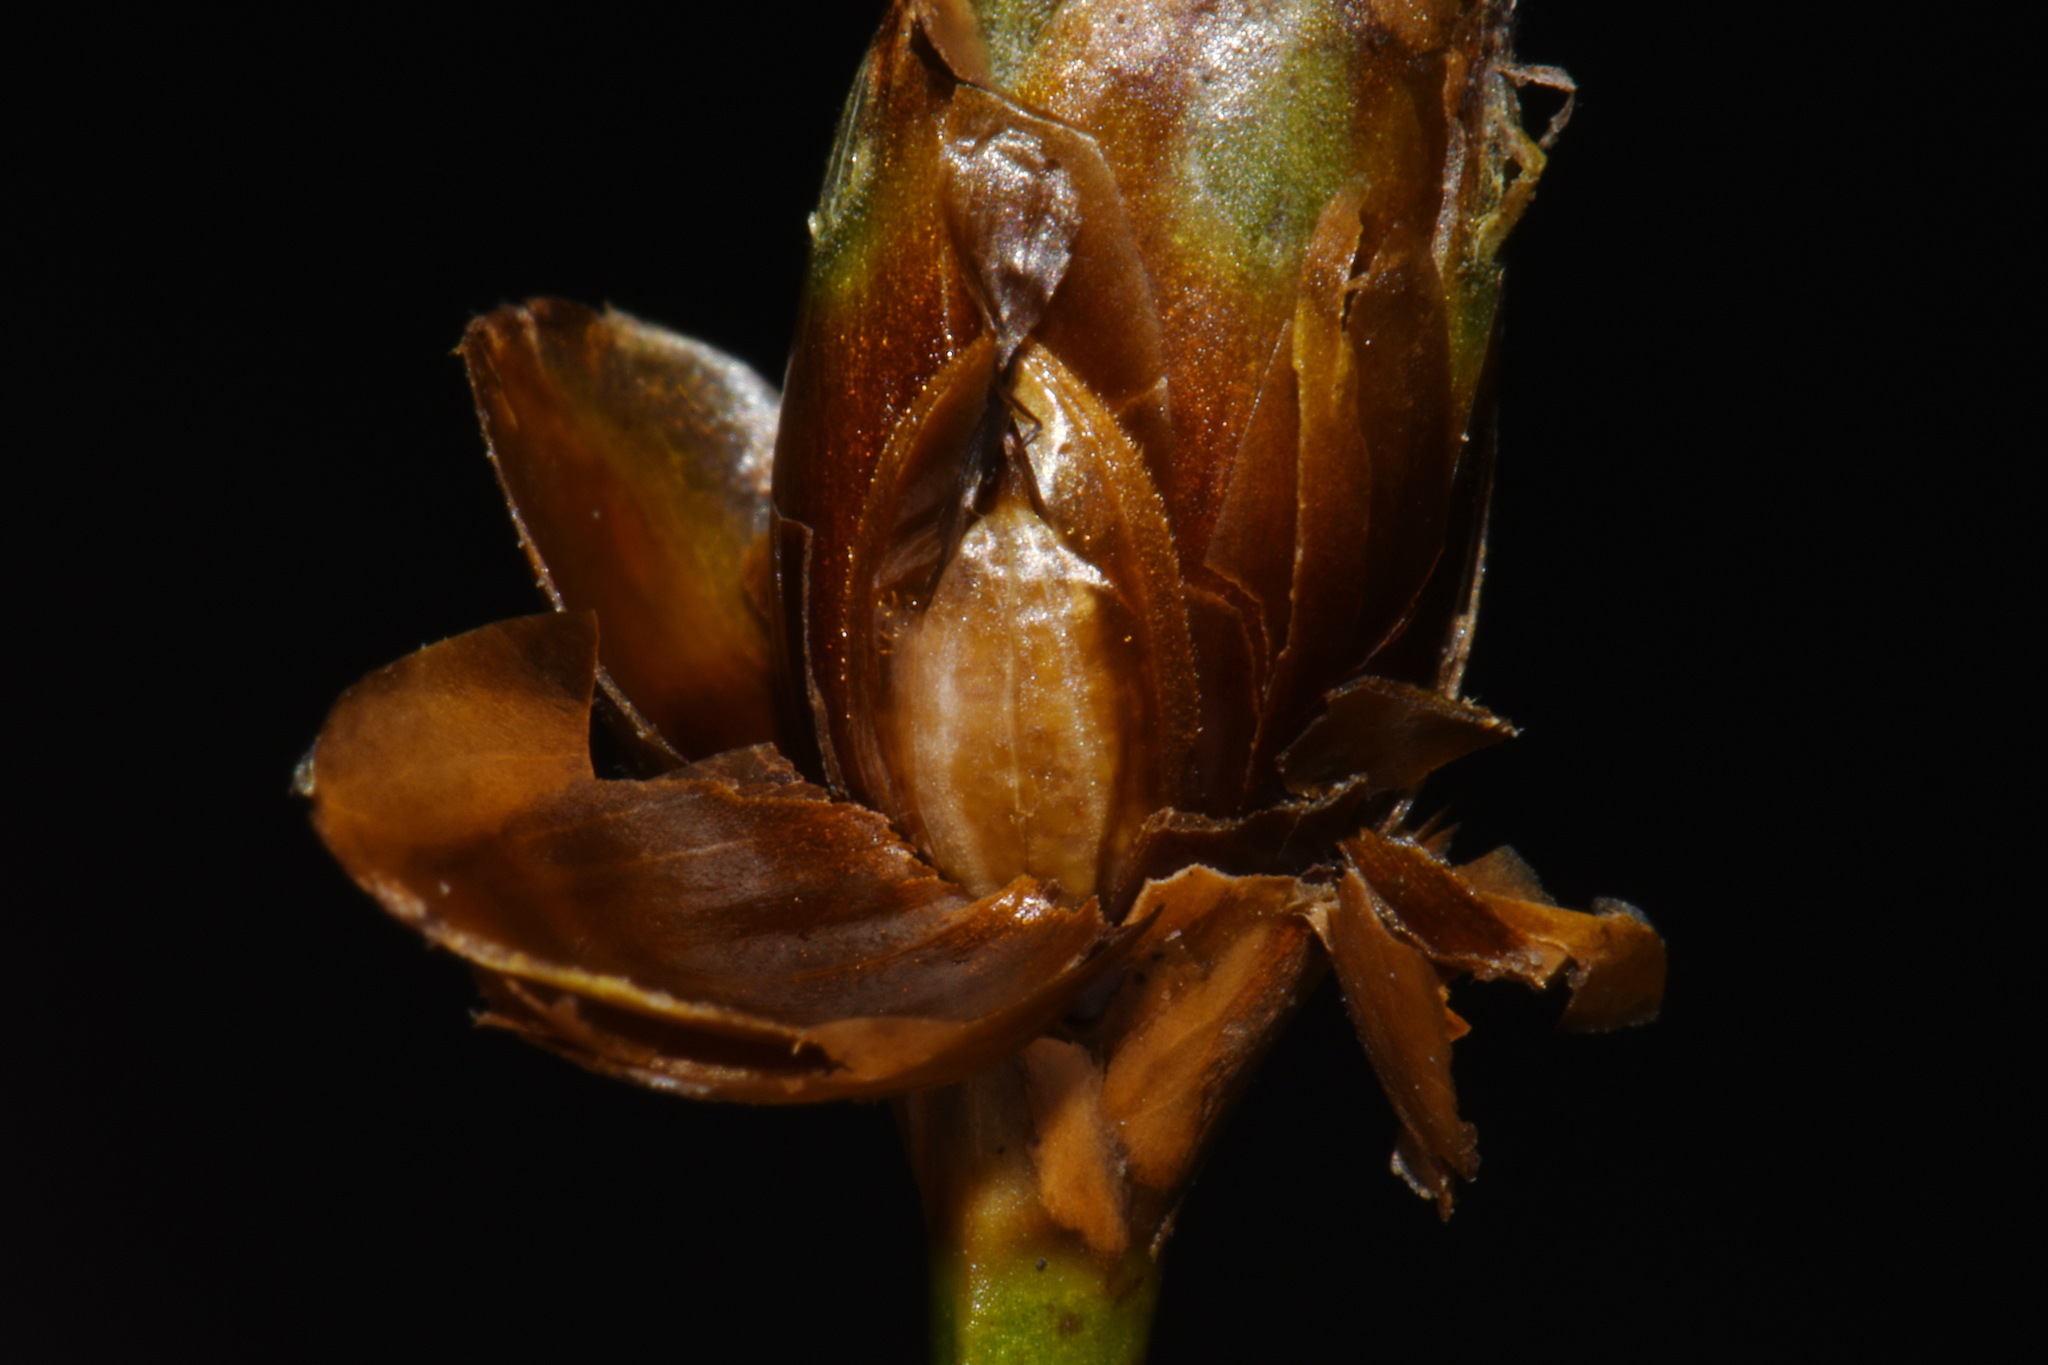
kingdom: Plantae
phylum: Tracheophyta
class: Liliopsida
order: Poales
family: Xyridaceae
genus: Xyris
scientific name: Xyris ambigua
